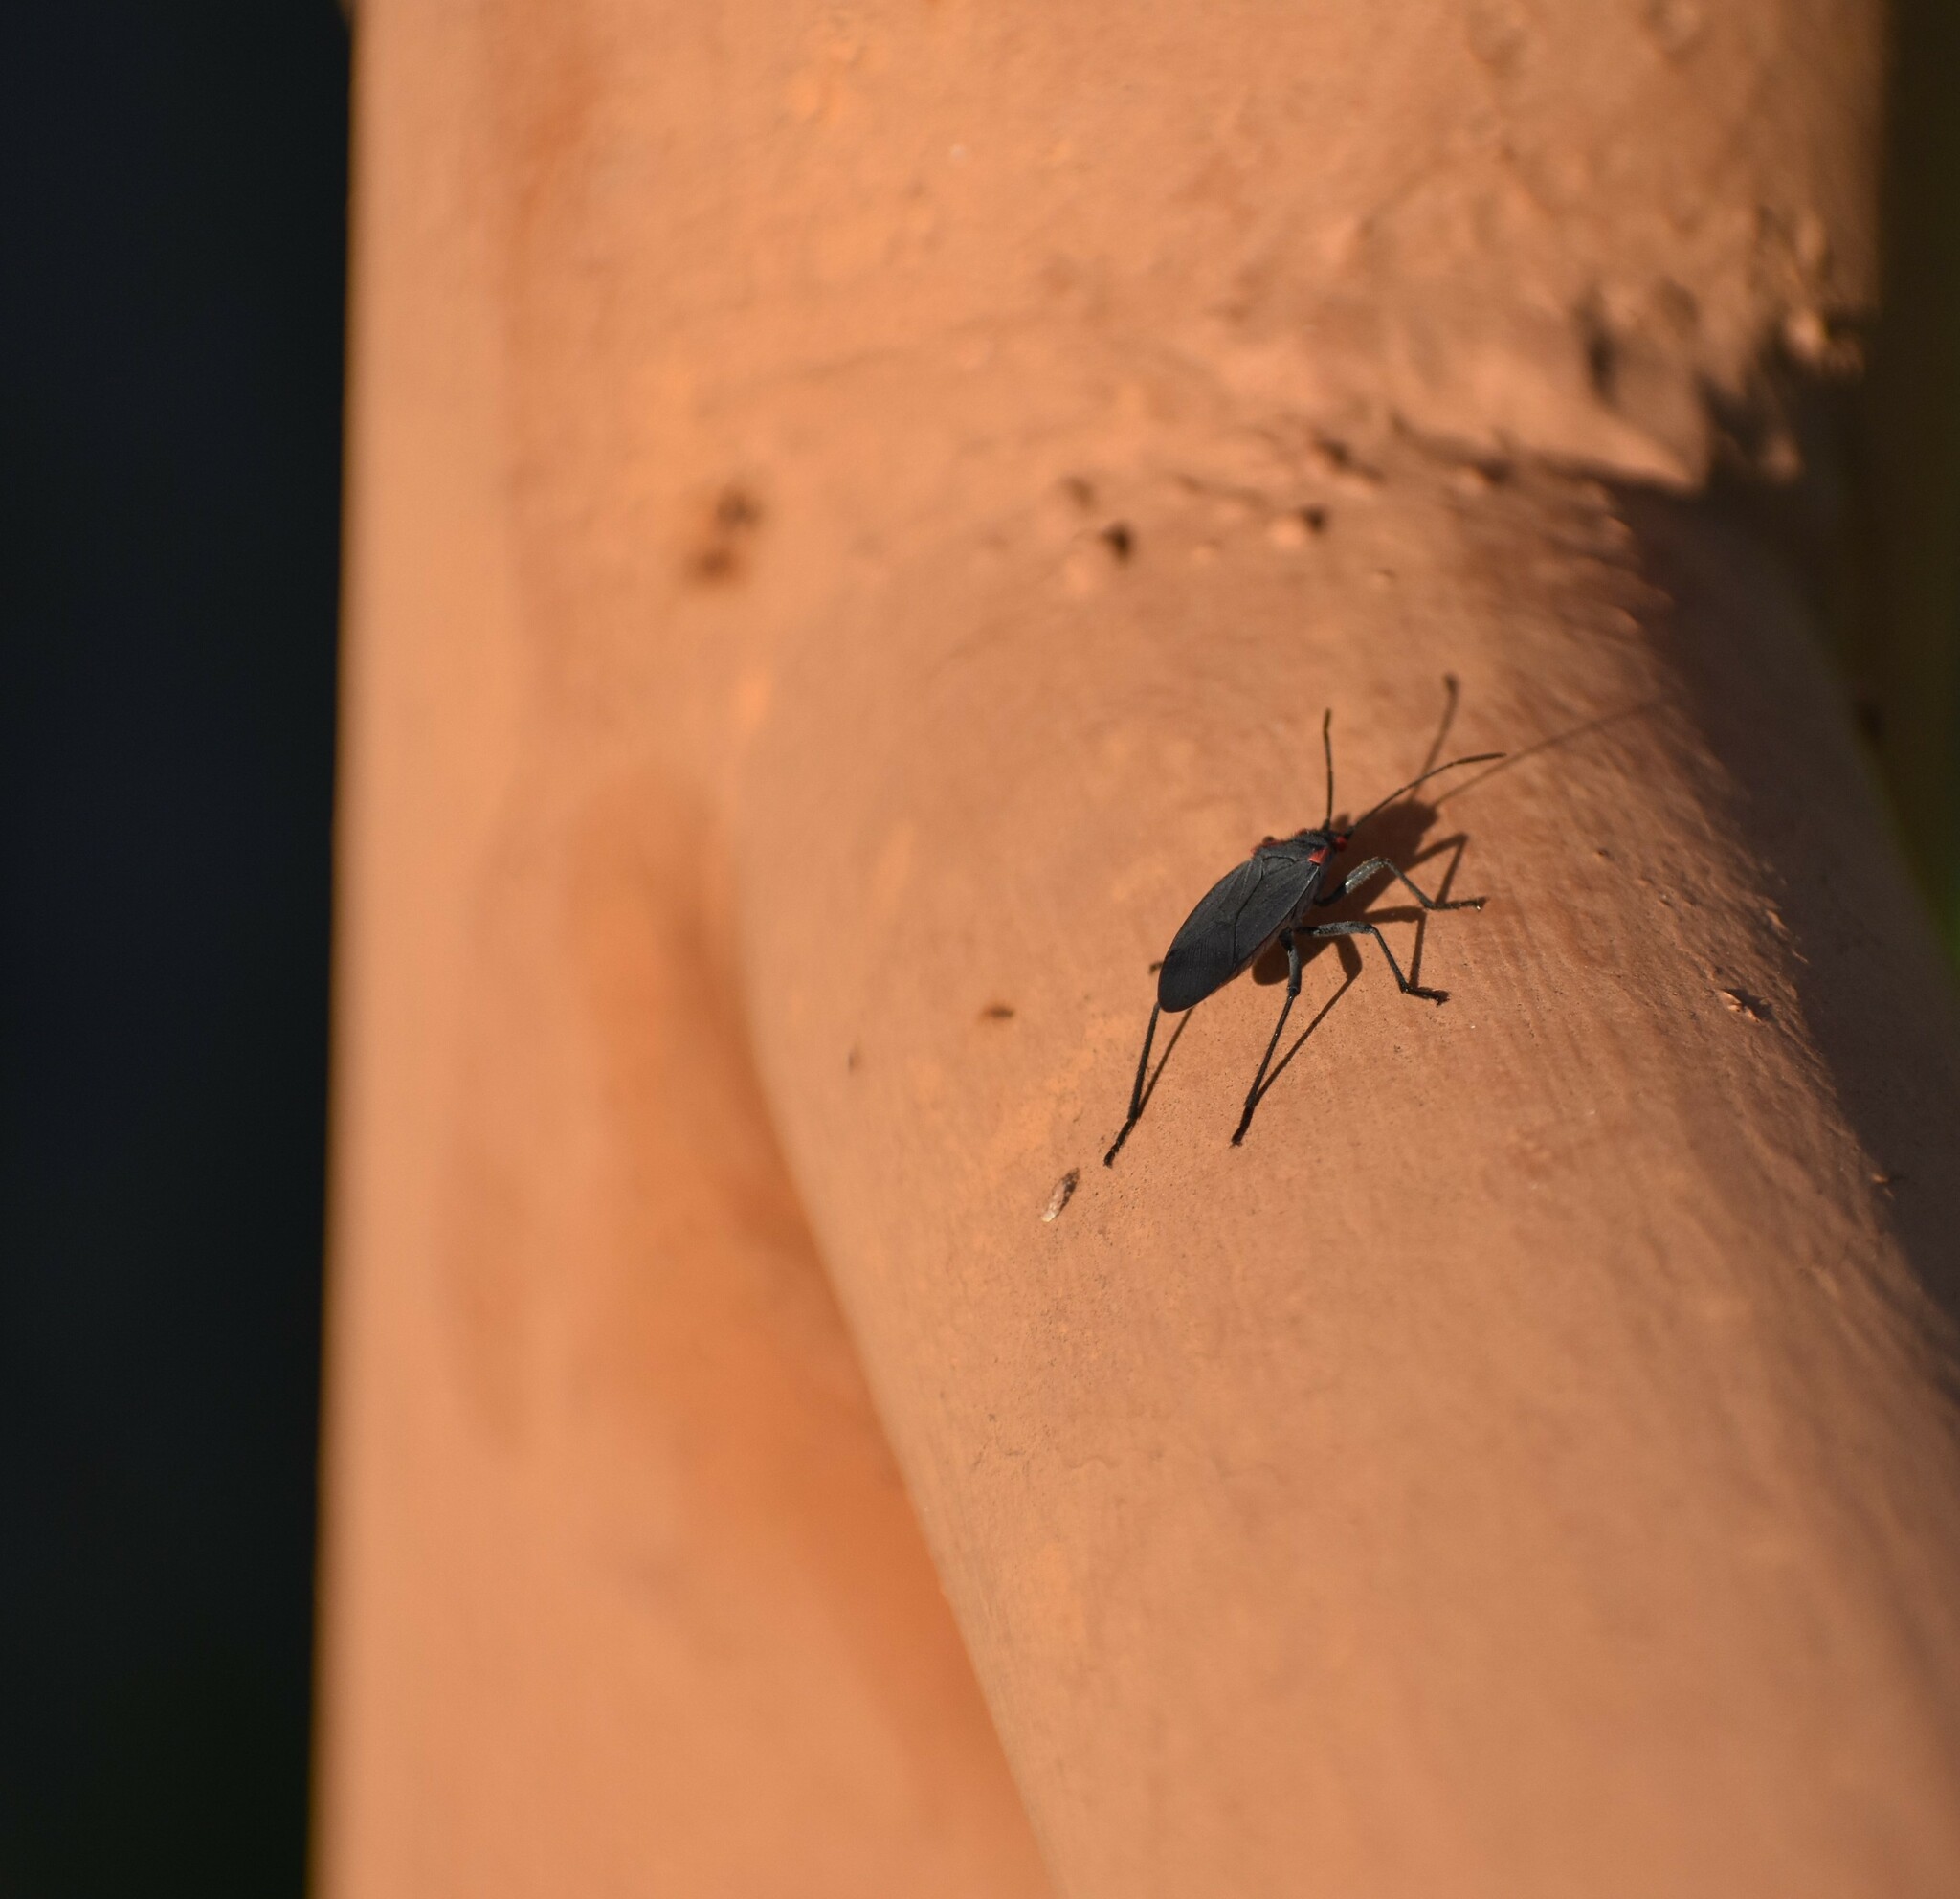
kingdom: Animalia
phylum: Arthropoda
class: Insecta
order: Hemiptera
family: Rhopalidae
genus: Jadera
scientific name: Jadera haematoloma
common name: Red-shouldered bug
